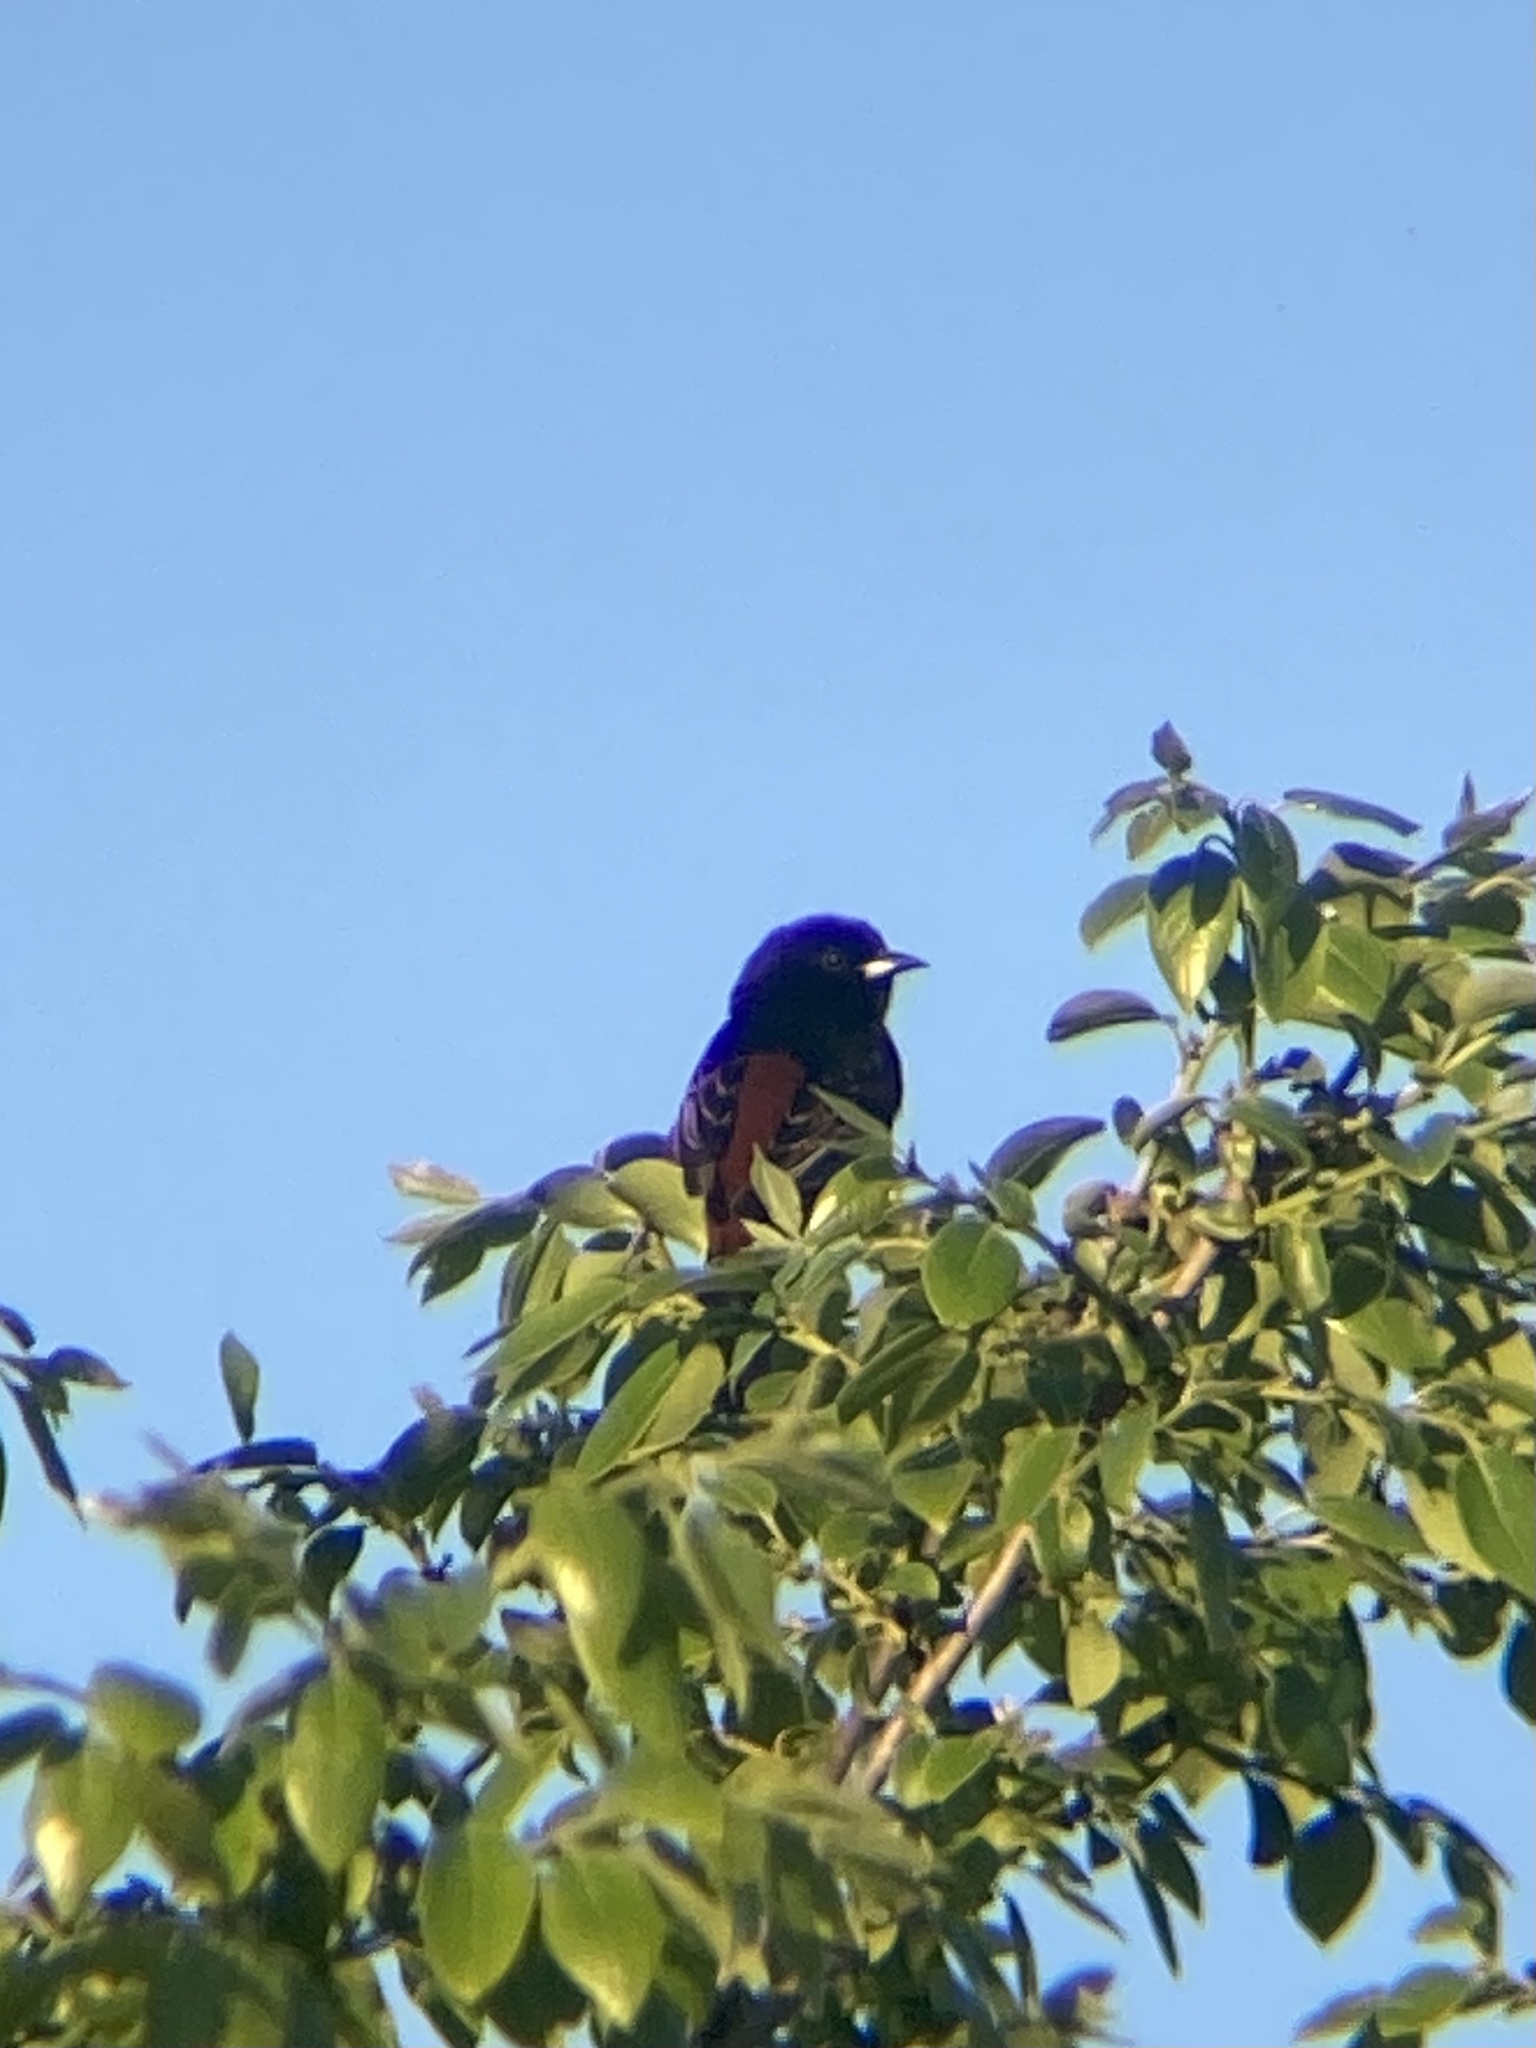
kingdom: Animalia
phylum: Chordata
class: Aves
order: Passeriformes
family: Icteridae
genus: Icterus
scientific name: Icterus spurius
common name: Orchard oriole
